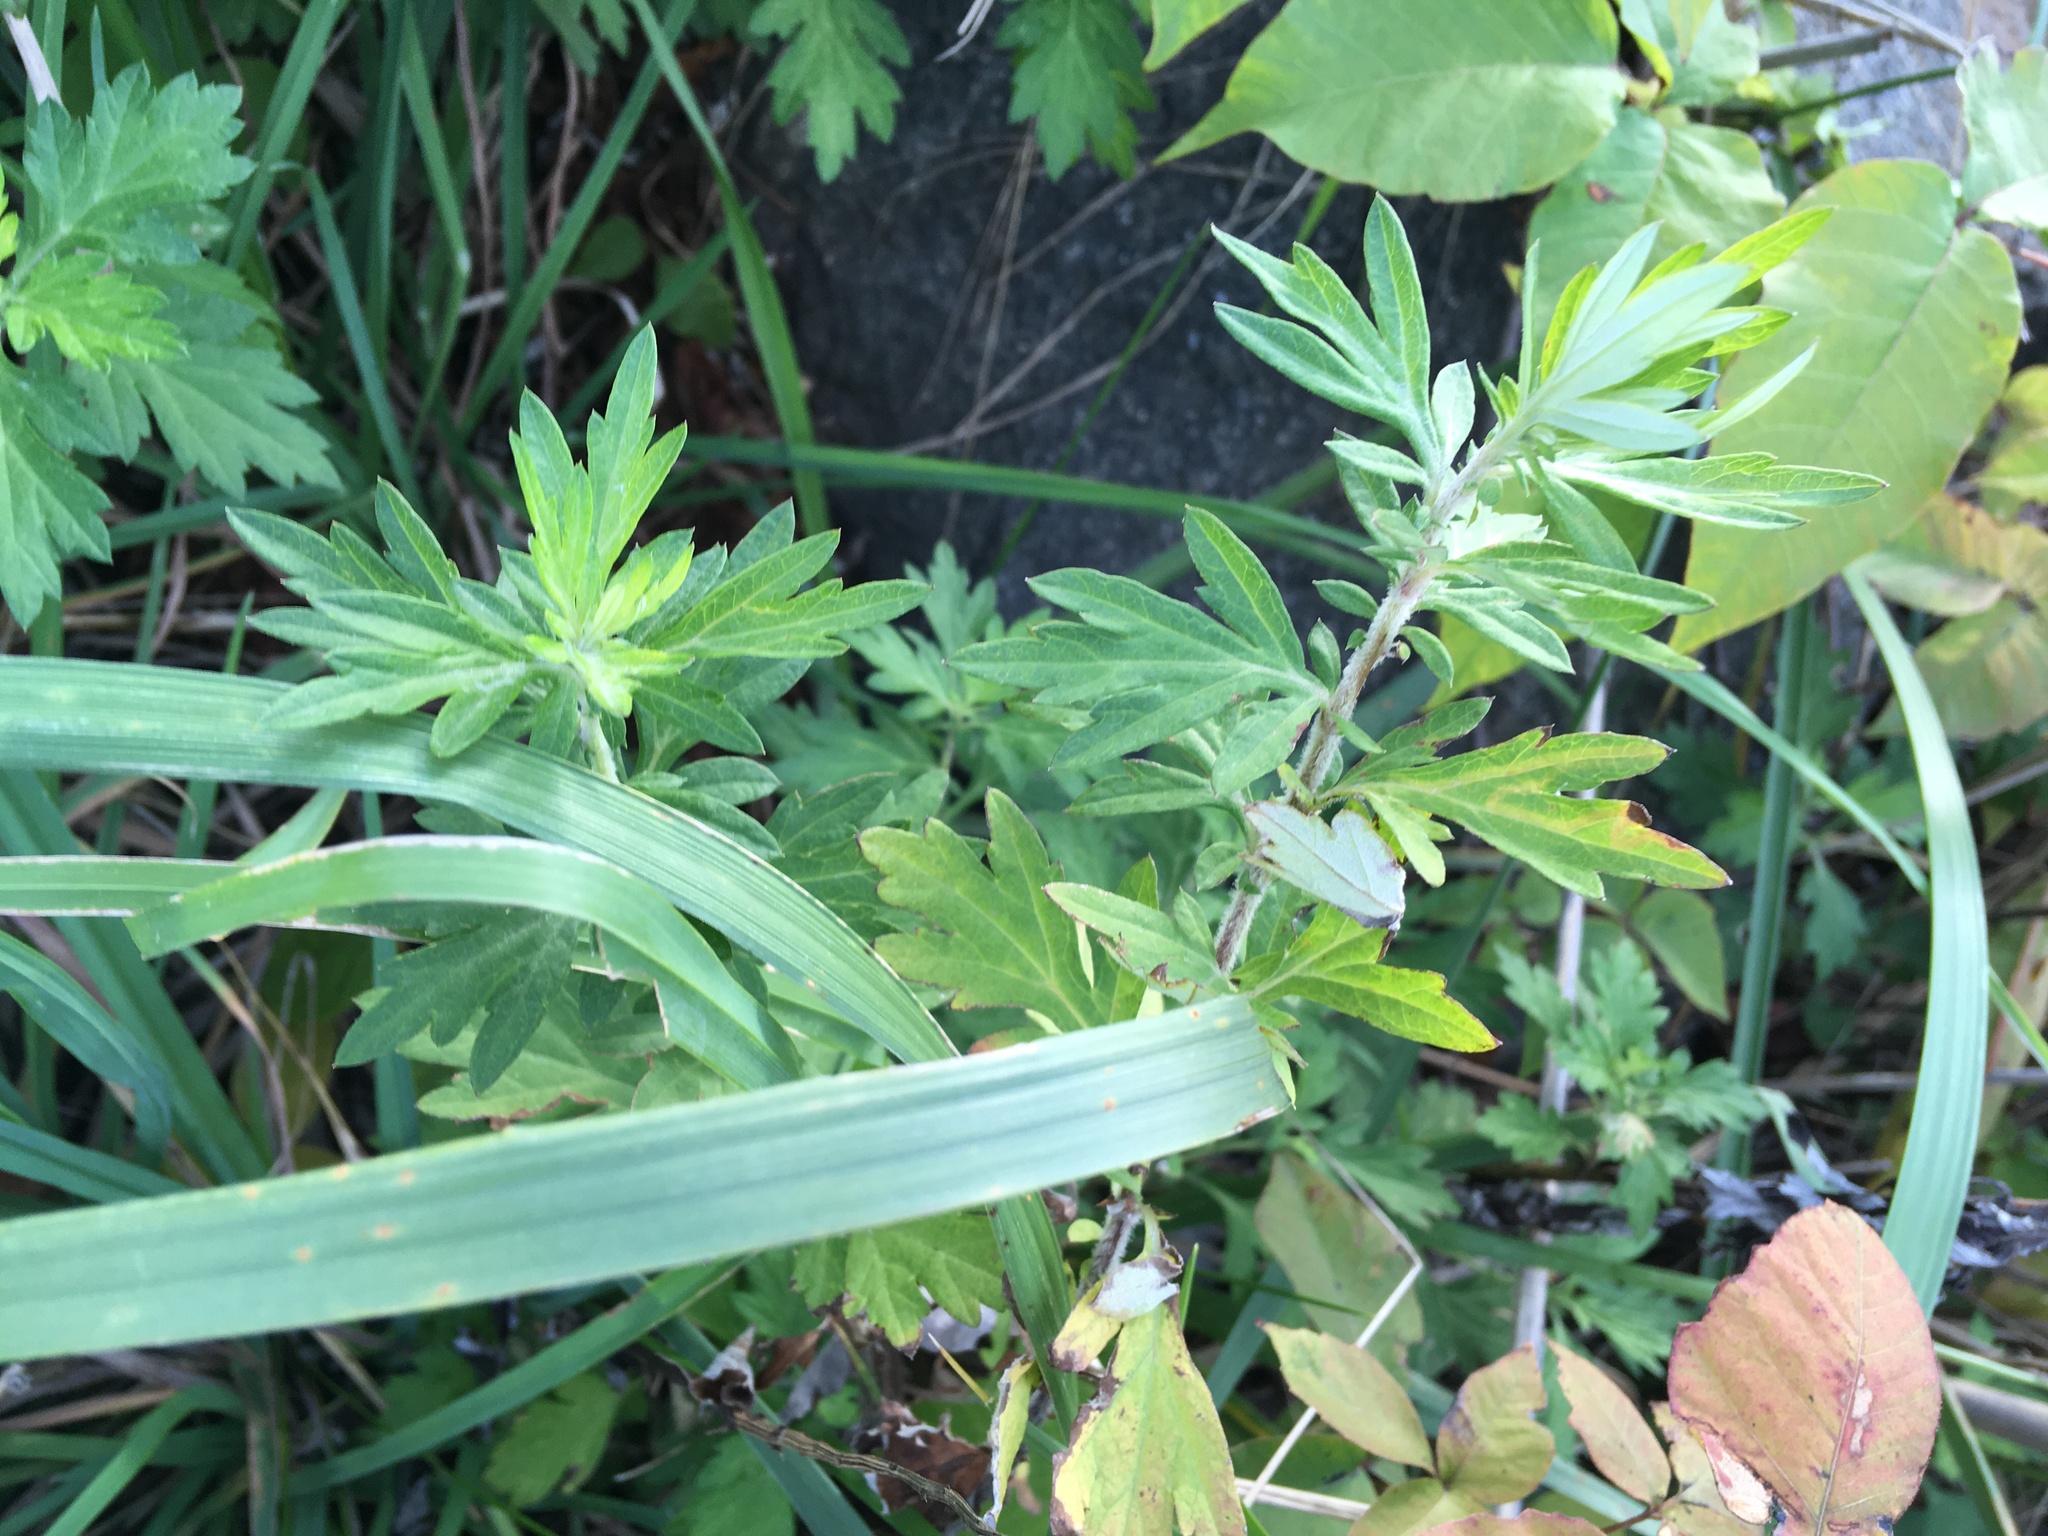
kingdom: Plantae
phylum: Tracheophyta
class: Magnoliopsida
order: Asterales
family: Asteraceae
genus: Artemisia
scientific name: Artemisia vulgaris
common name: Mugwort
